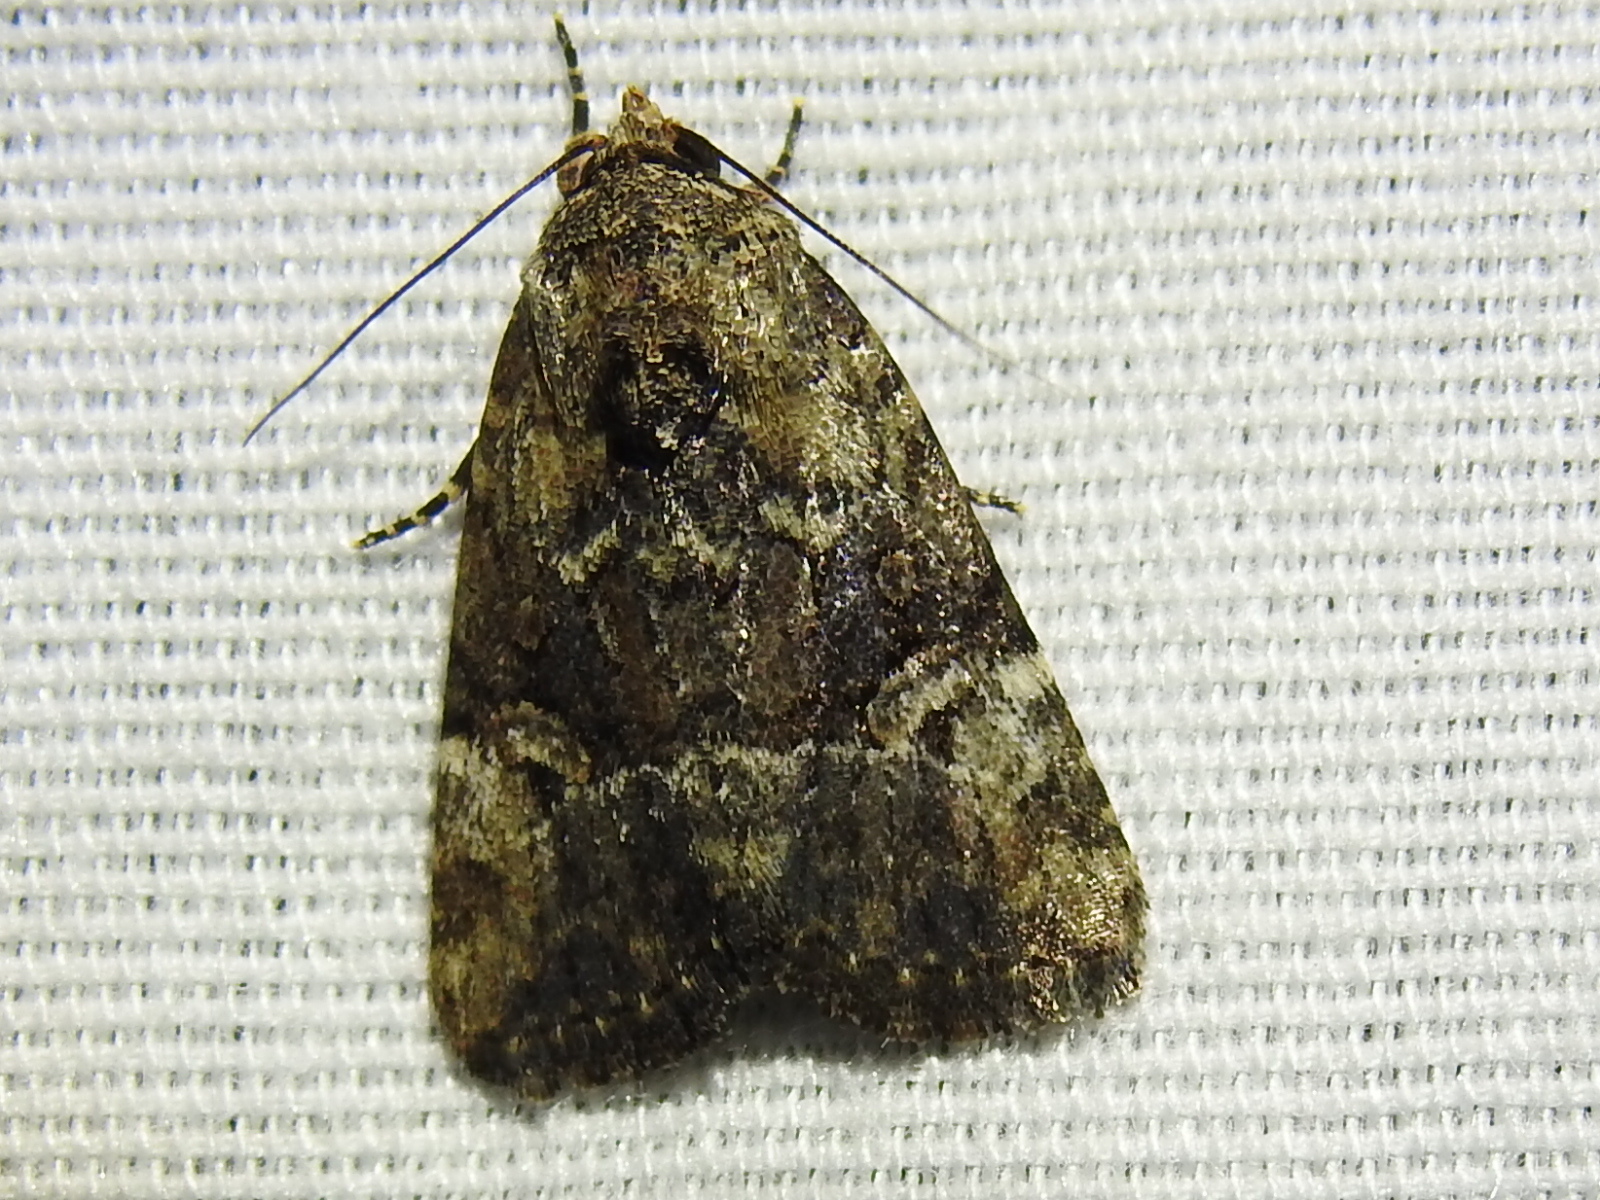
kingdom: Animalia
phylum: Arthropoda
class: Insecta
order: Lepidoptera
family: Noctuidae
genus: Elaphria
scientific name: Elaphria chalcedonia
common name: Chalcedony midget
